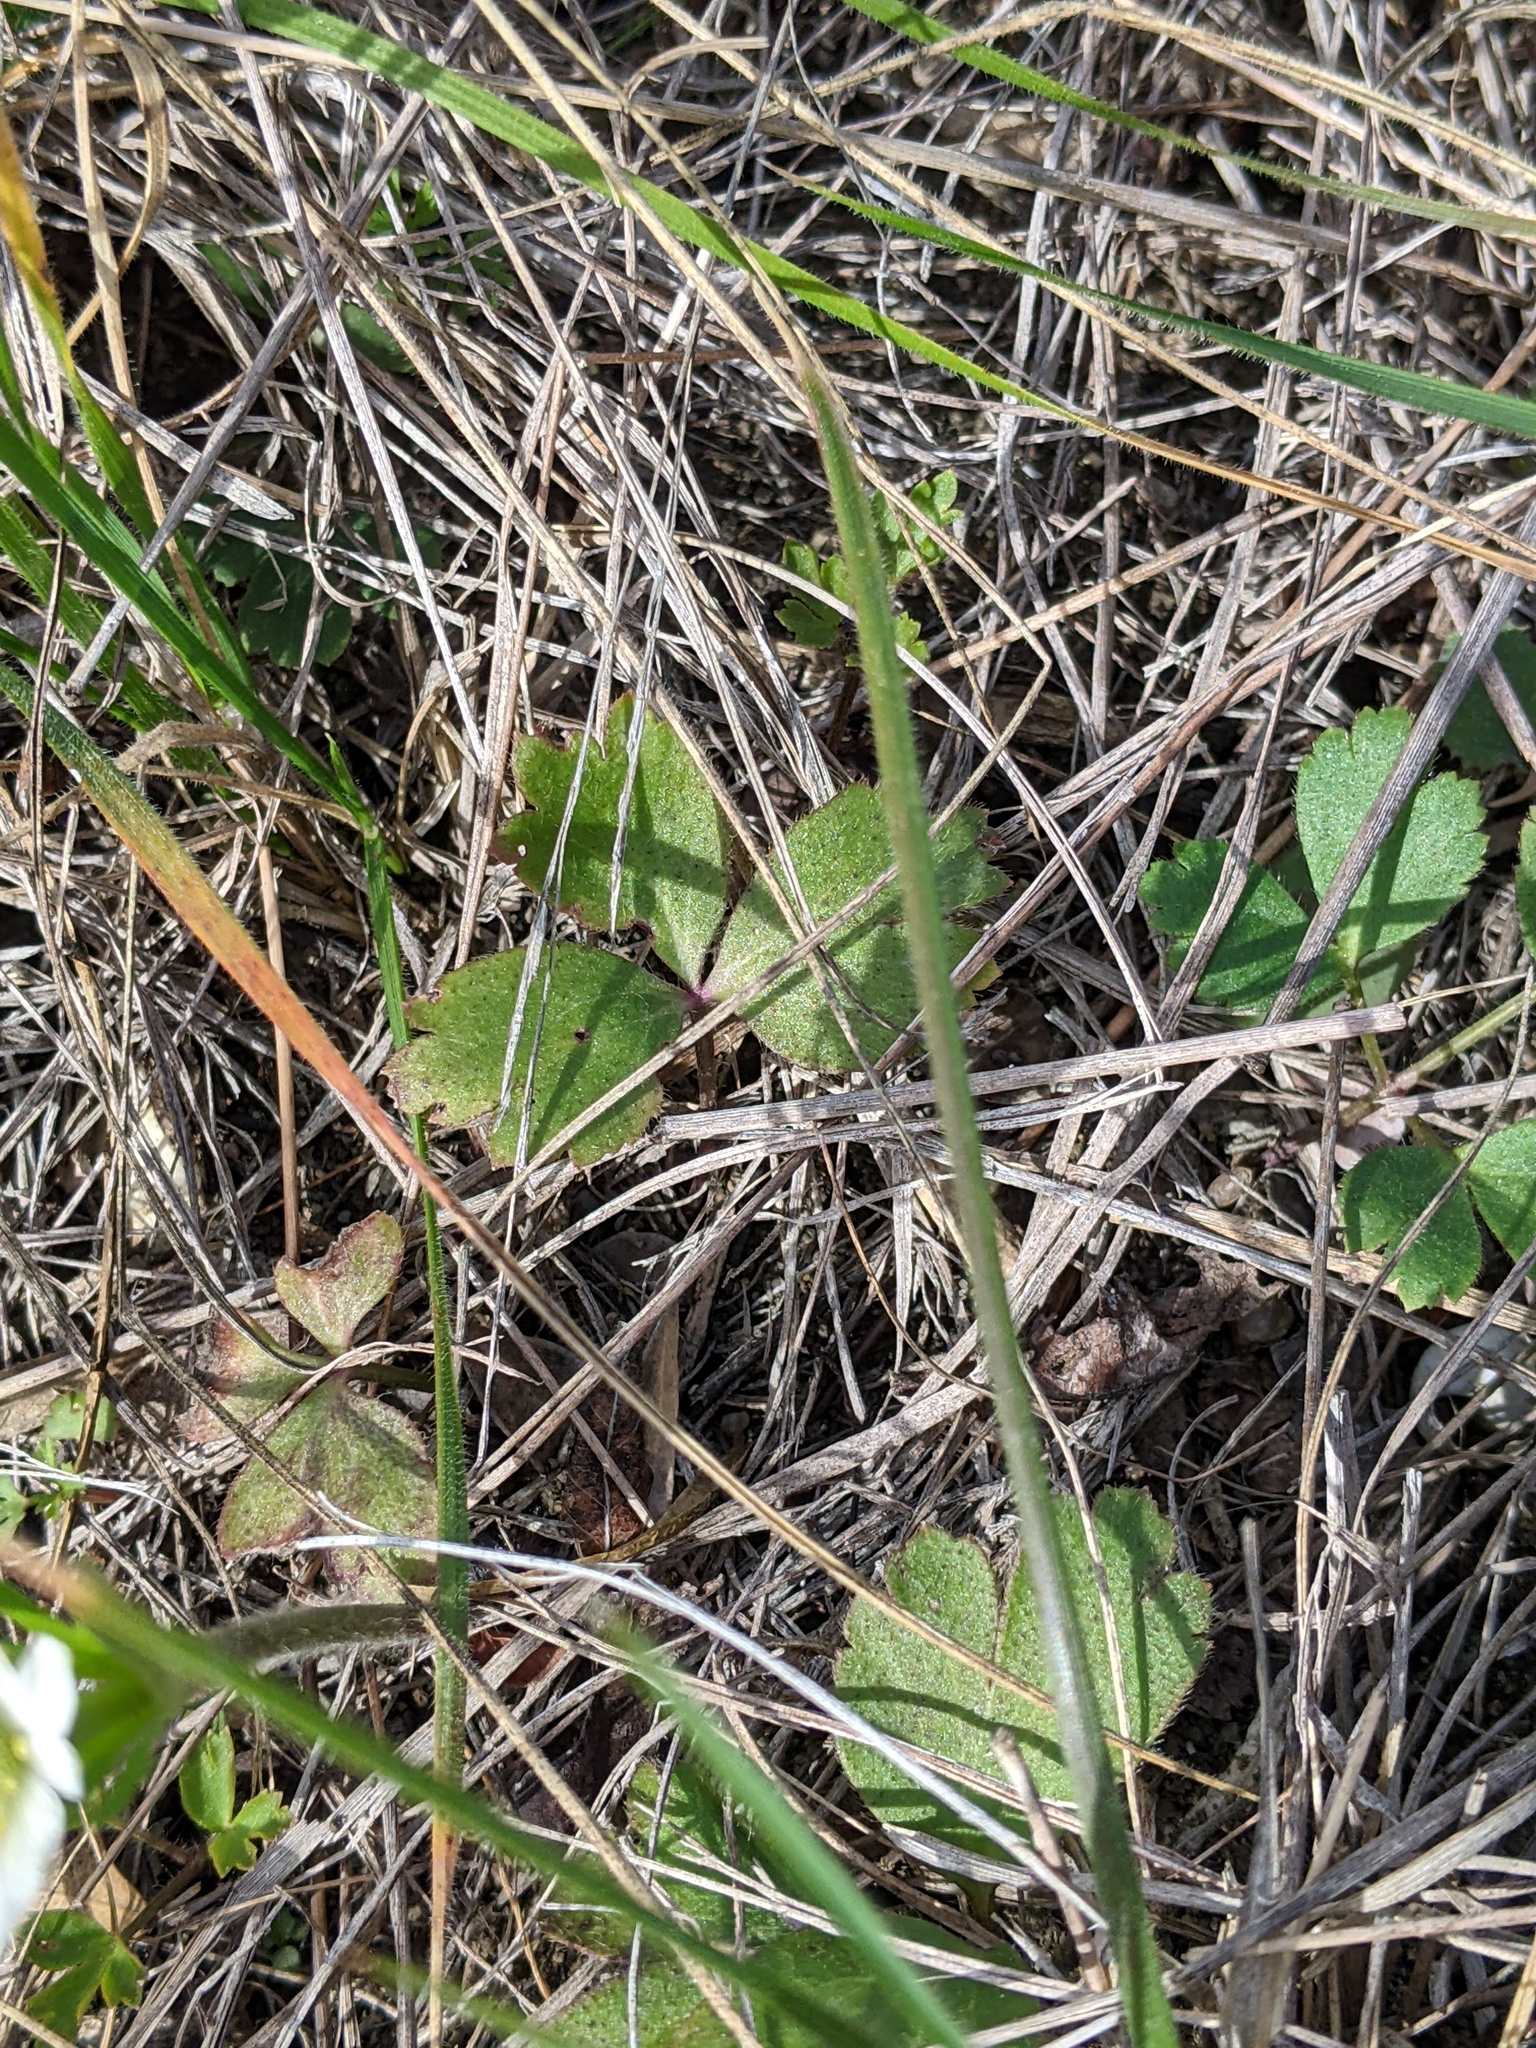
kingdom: Plantae
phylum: Tracheophyta
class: Magnoliopsida
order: Ranunculales
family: Ranunculaceae
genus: Anemone
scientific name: Anemone berlandieri
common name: Ten-petal anemone
